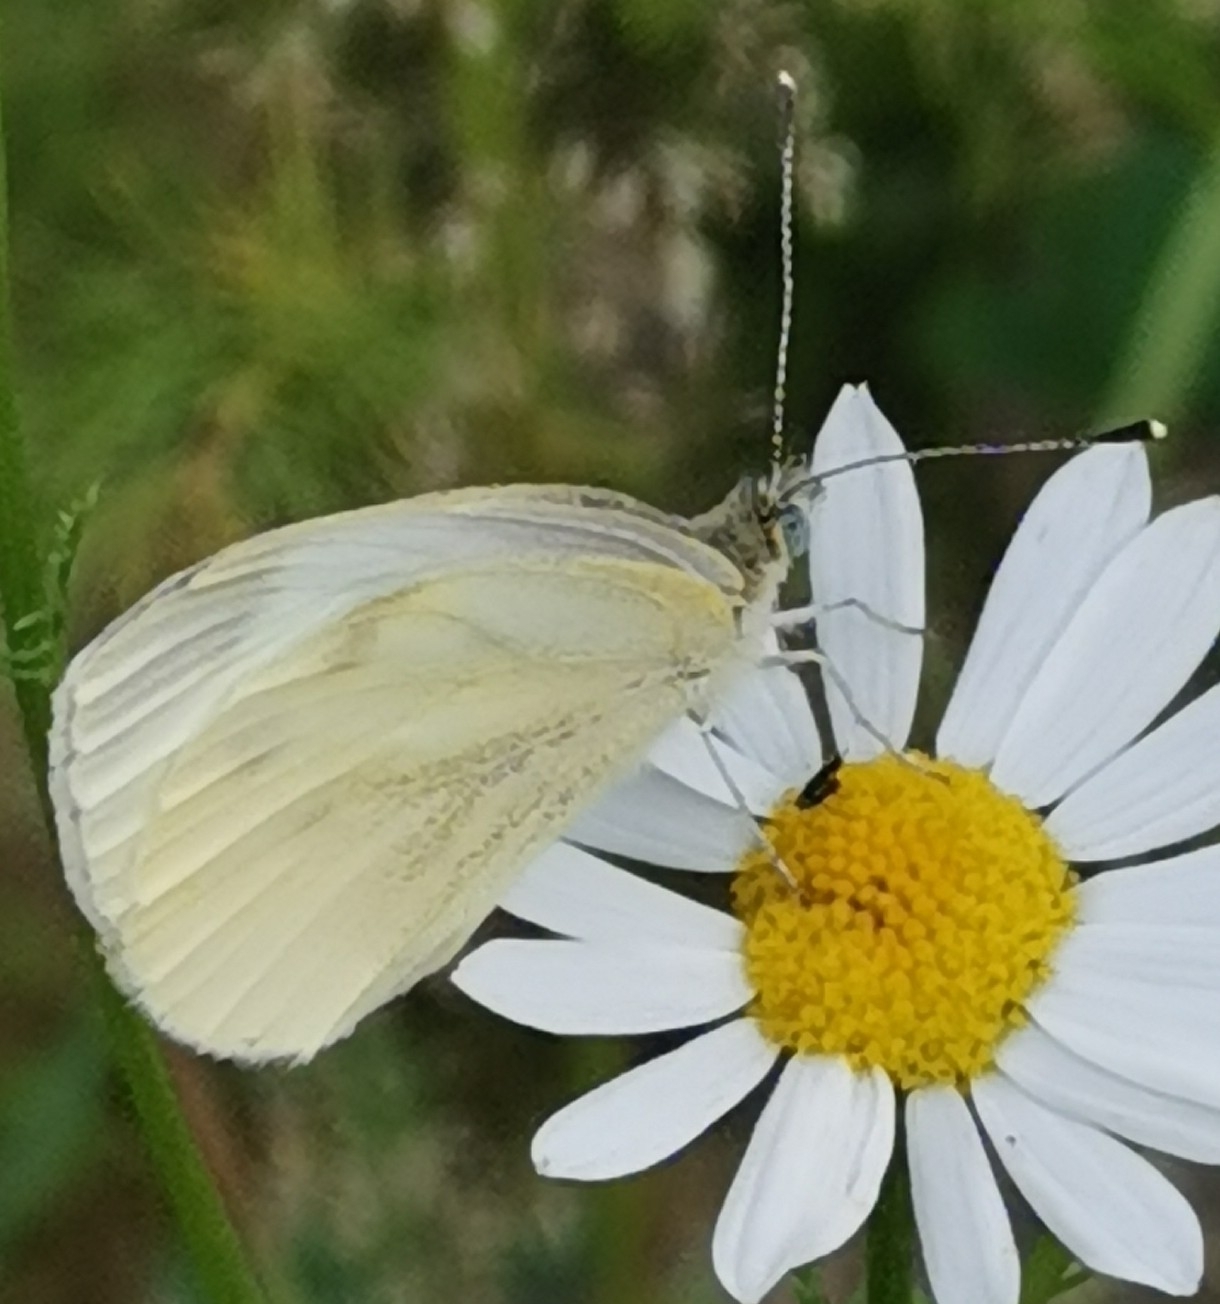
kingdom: Animalia
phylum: Arthropoda
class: Insecta
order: Lepidoptera
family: Pieridae
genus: Pieris
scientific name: Pieris napi
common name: Green-veined white
